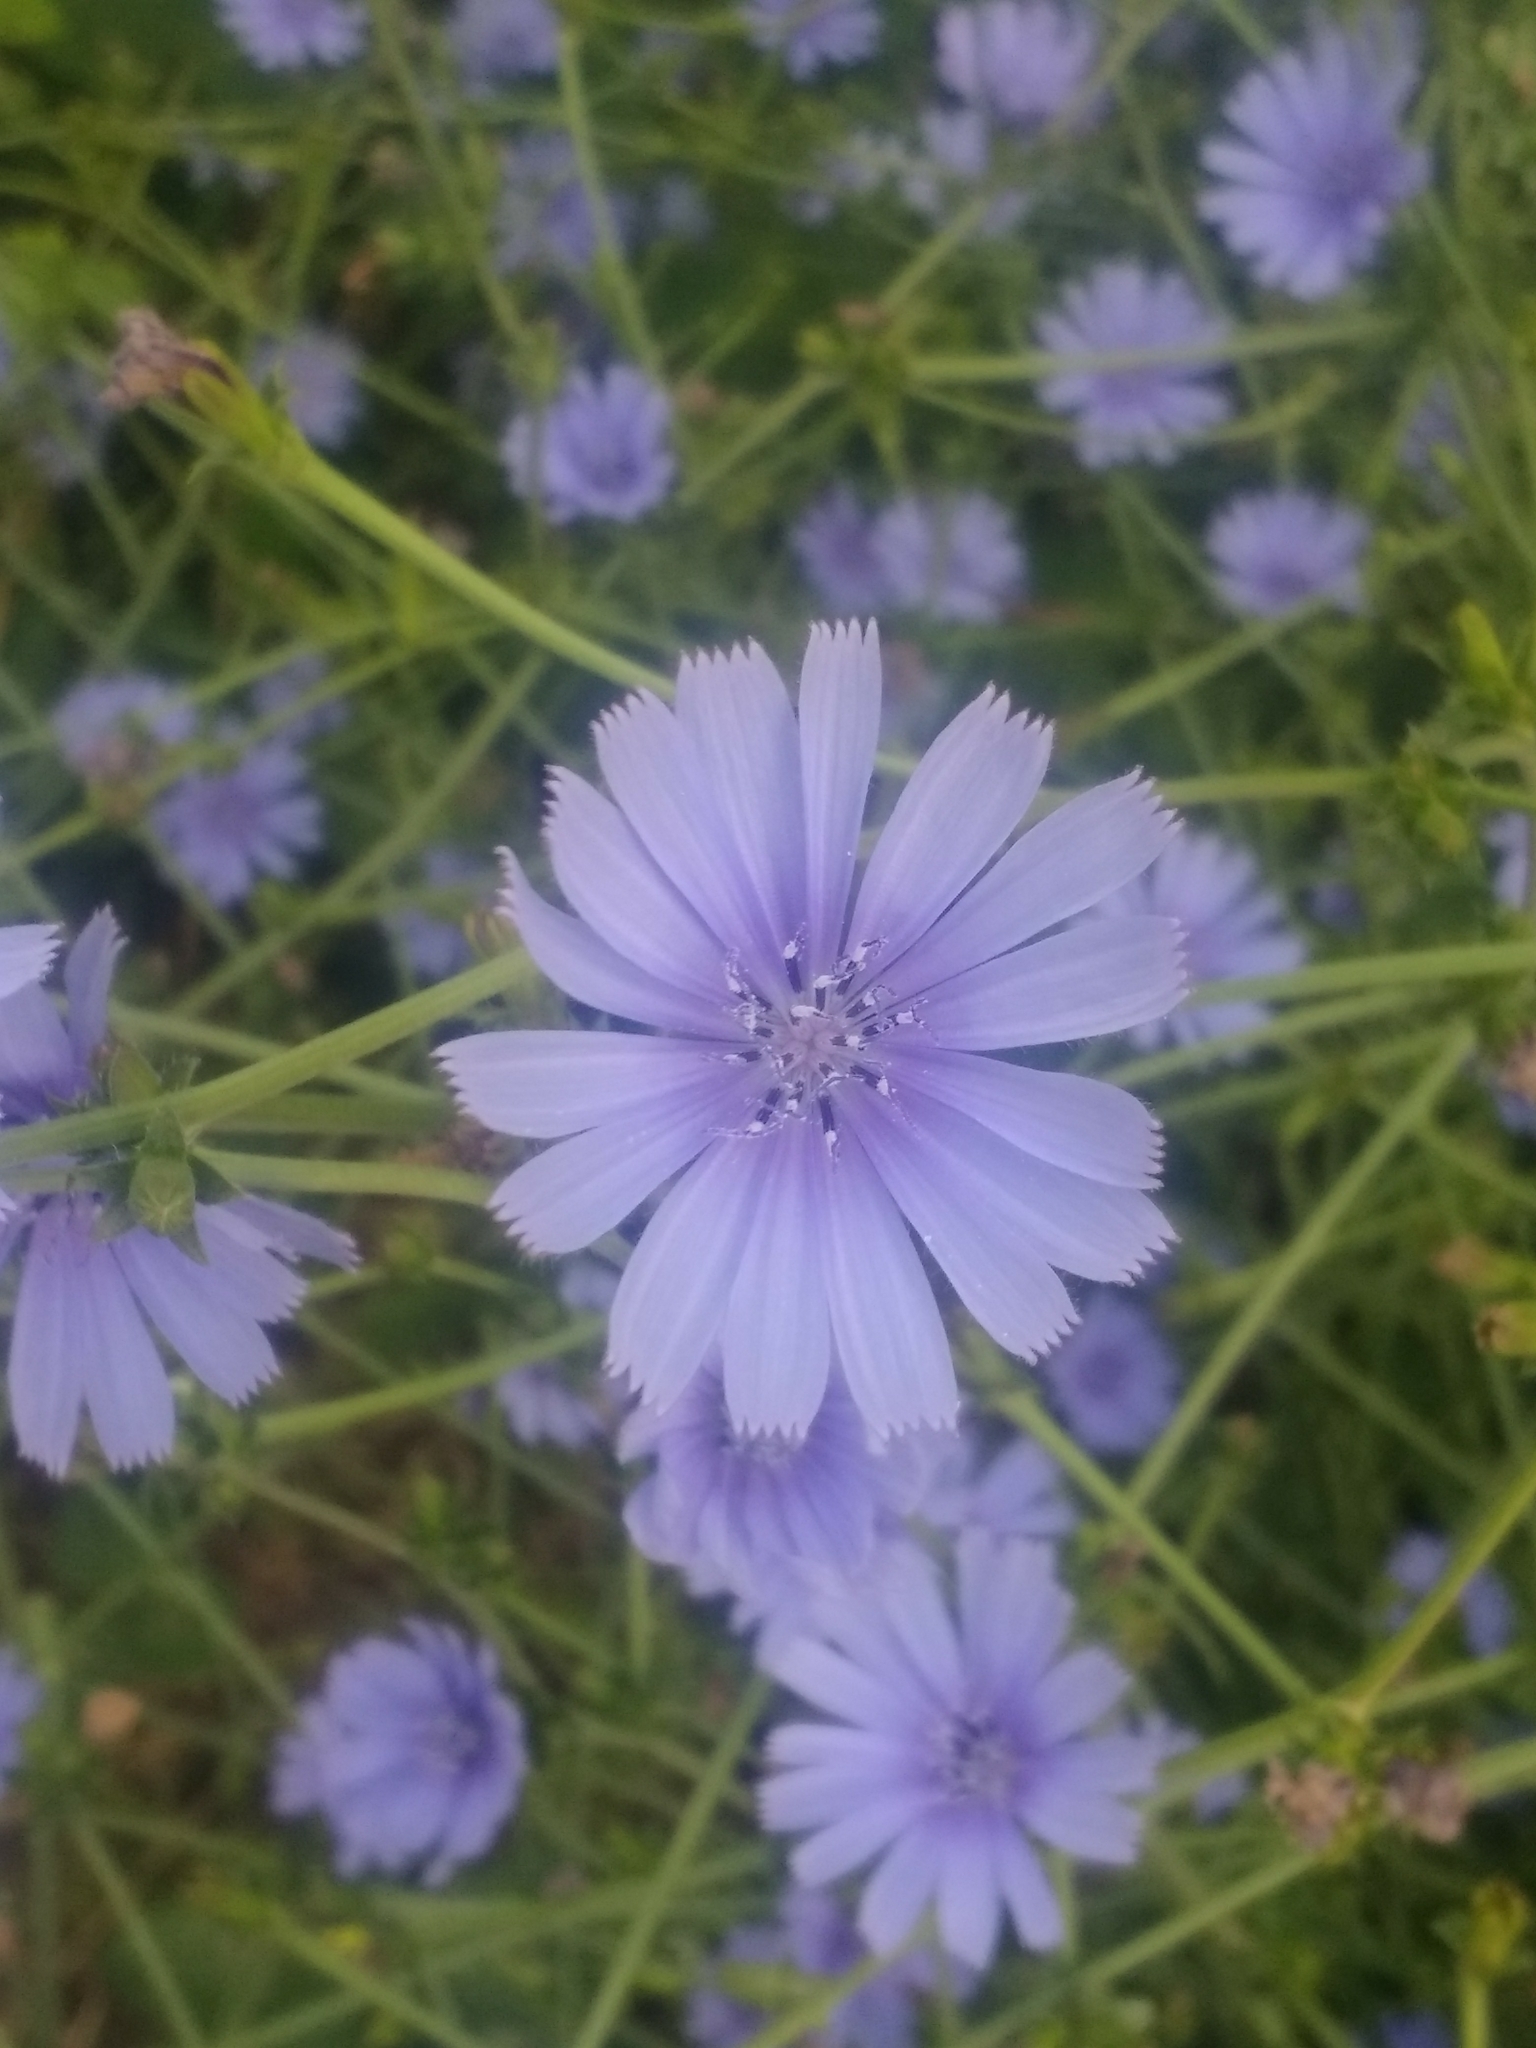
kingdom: Plantae
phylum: Tracheophyta
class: Magnoliopsida
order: Asterales
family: Asteraceae
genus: Cichorium
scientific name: Cichorium intybus
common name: Chicory
